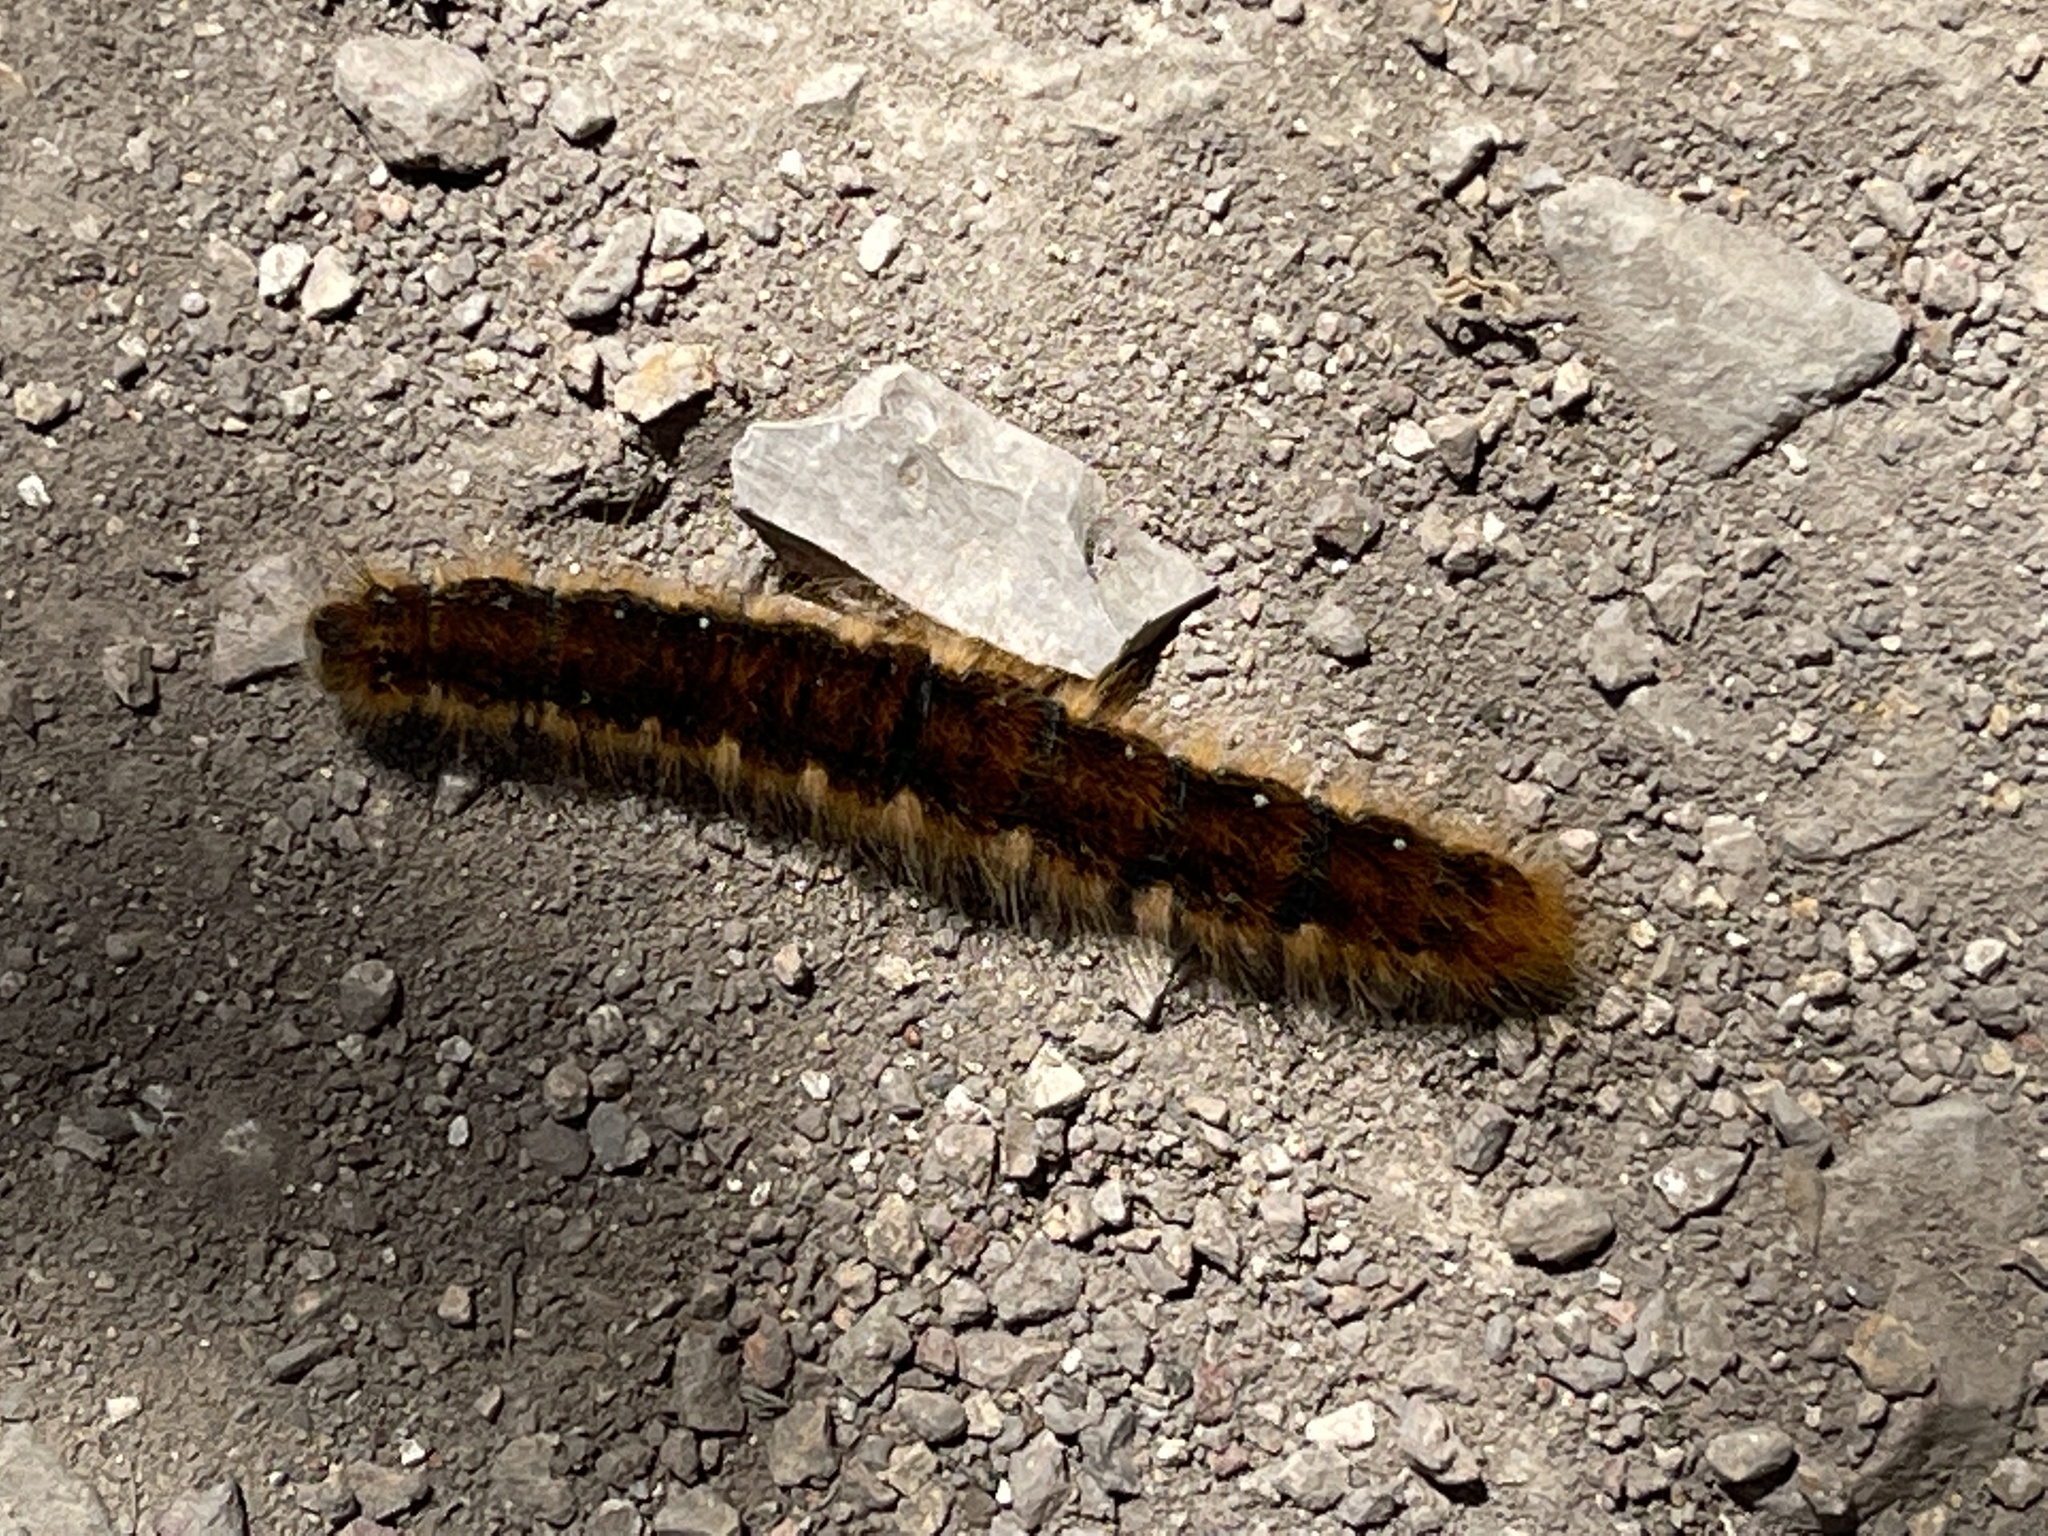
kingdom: Animalia
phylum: Arthropoda
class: Insecta
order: Lepidoptera
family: Lasiocampidae
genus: Malacosoma
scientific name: Malacosoma constricta
